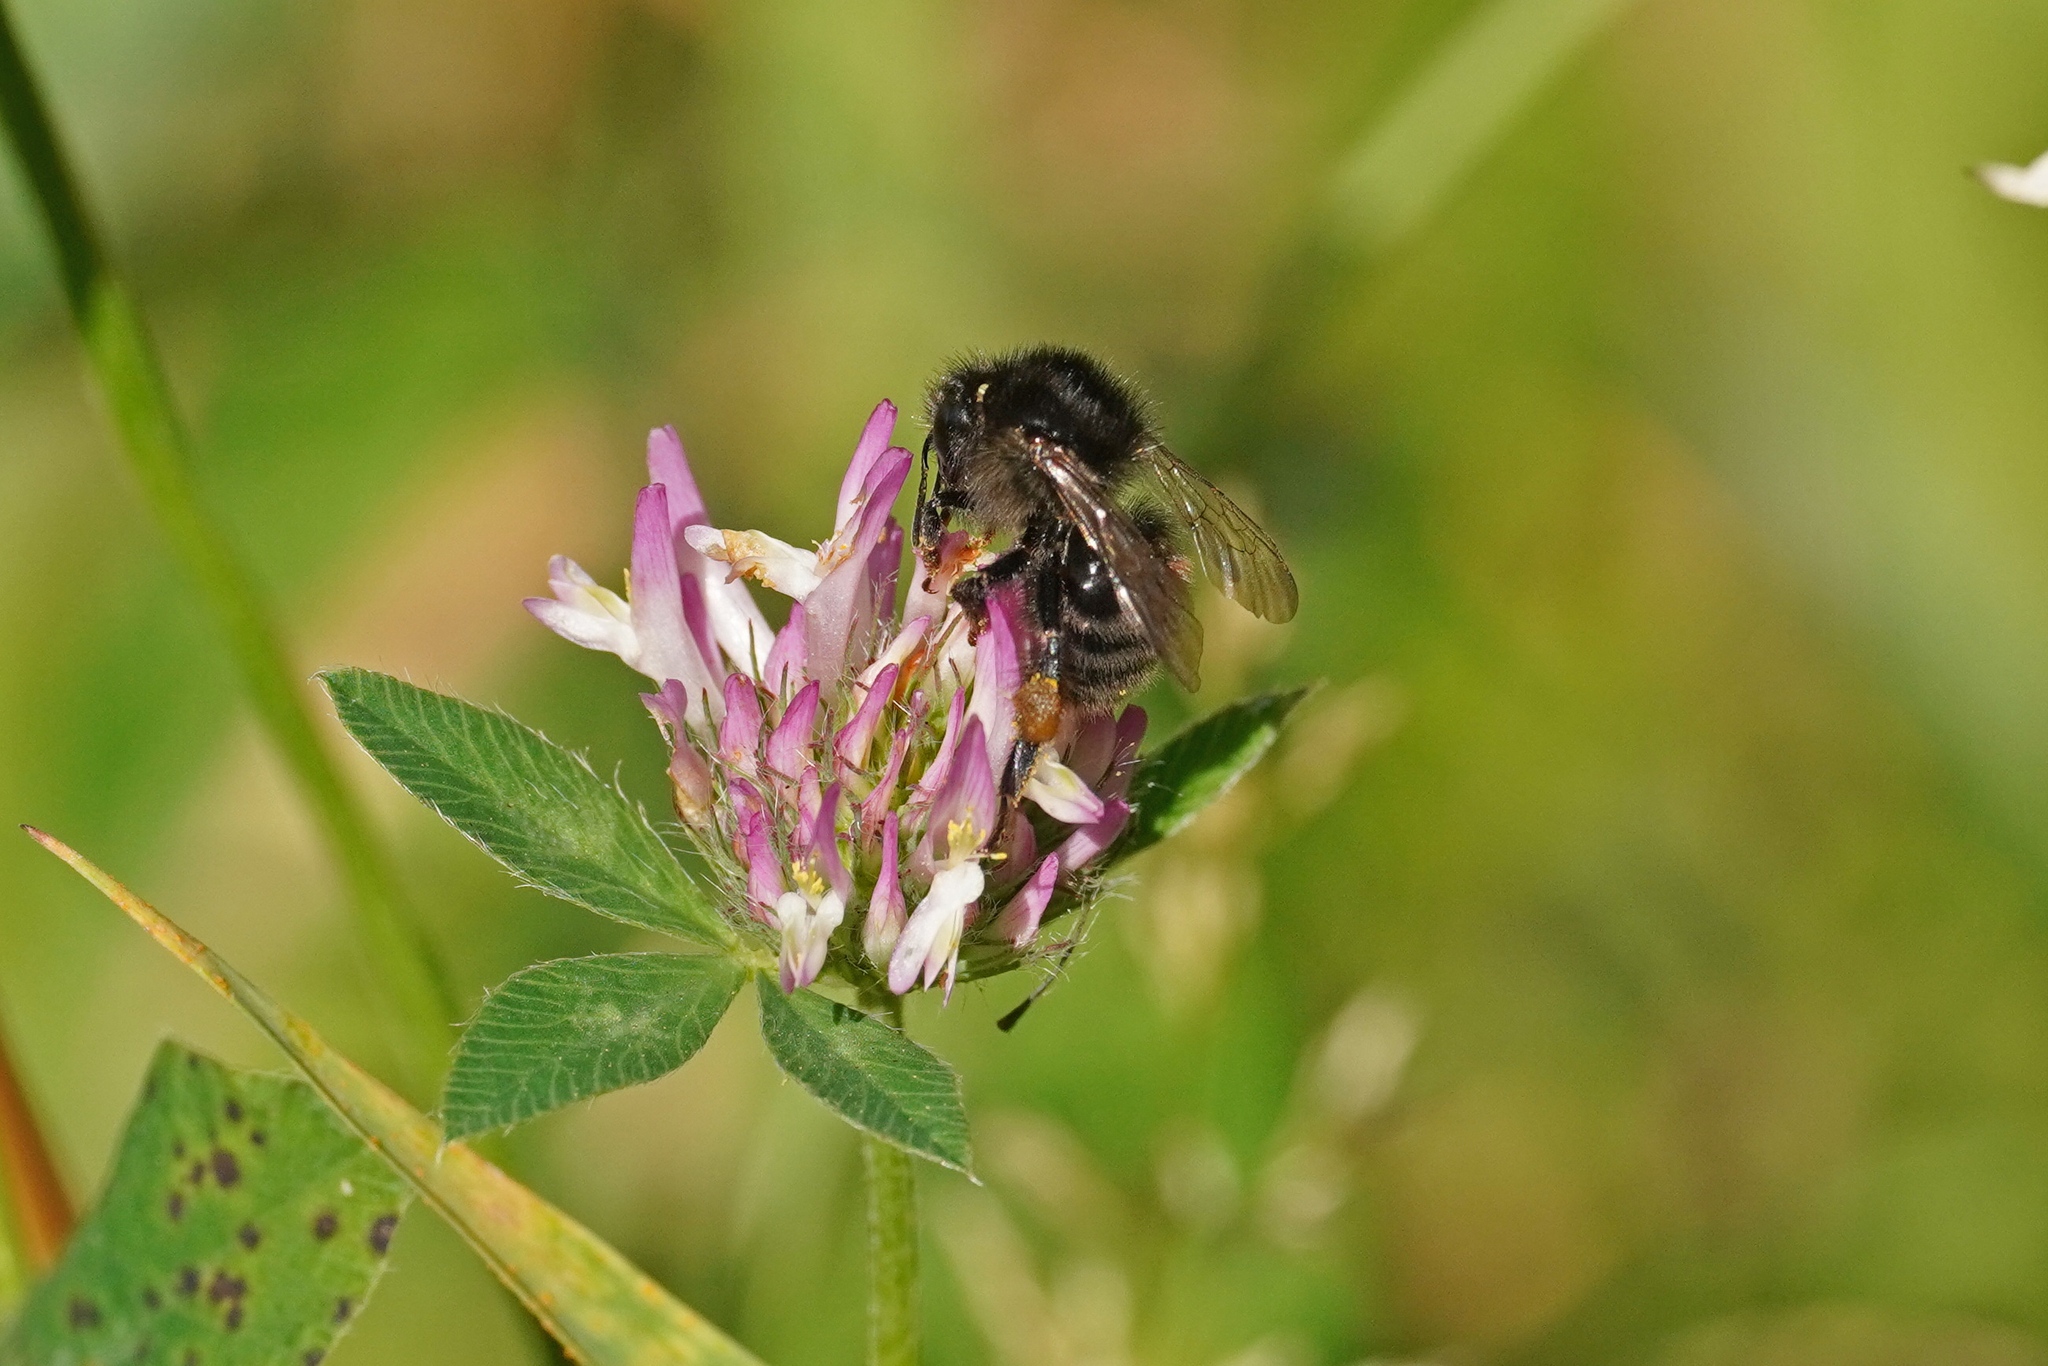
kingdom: Animalia
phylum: Arthropoda
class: Insecta
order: Hymenoptera
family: Apidae
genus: Bombus
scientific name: Bombus humilis
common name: Brown-banded carder-bee
